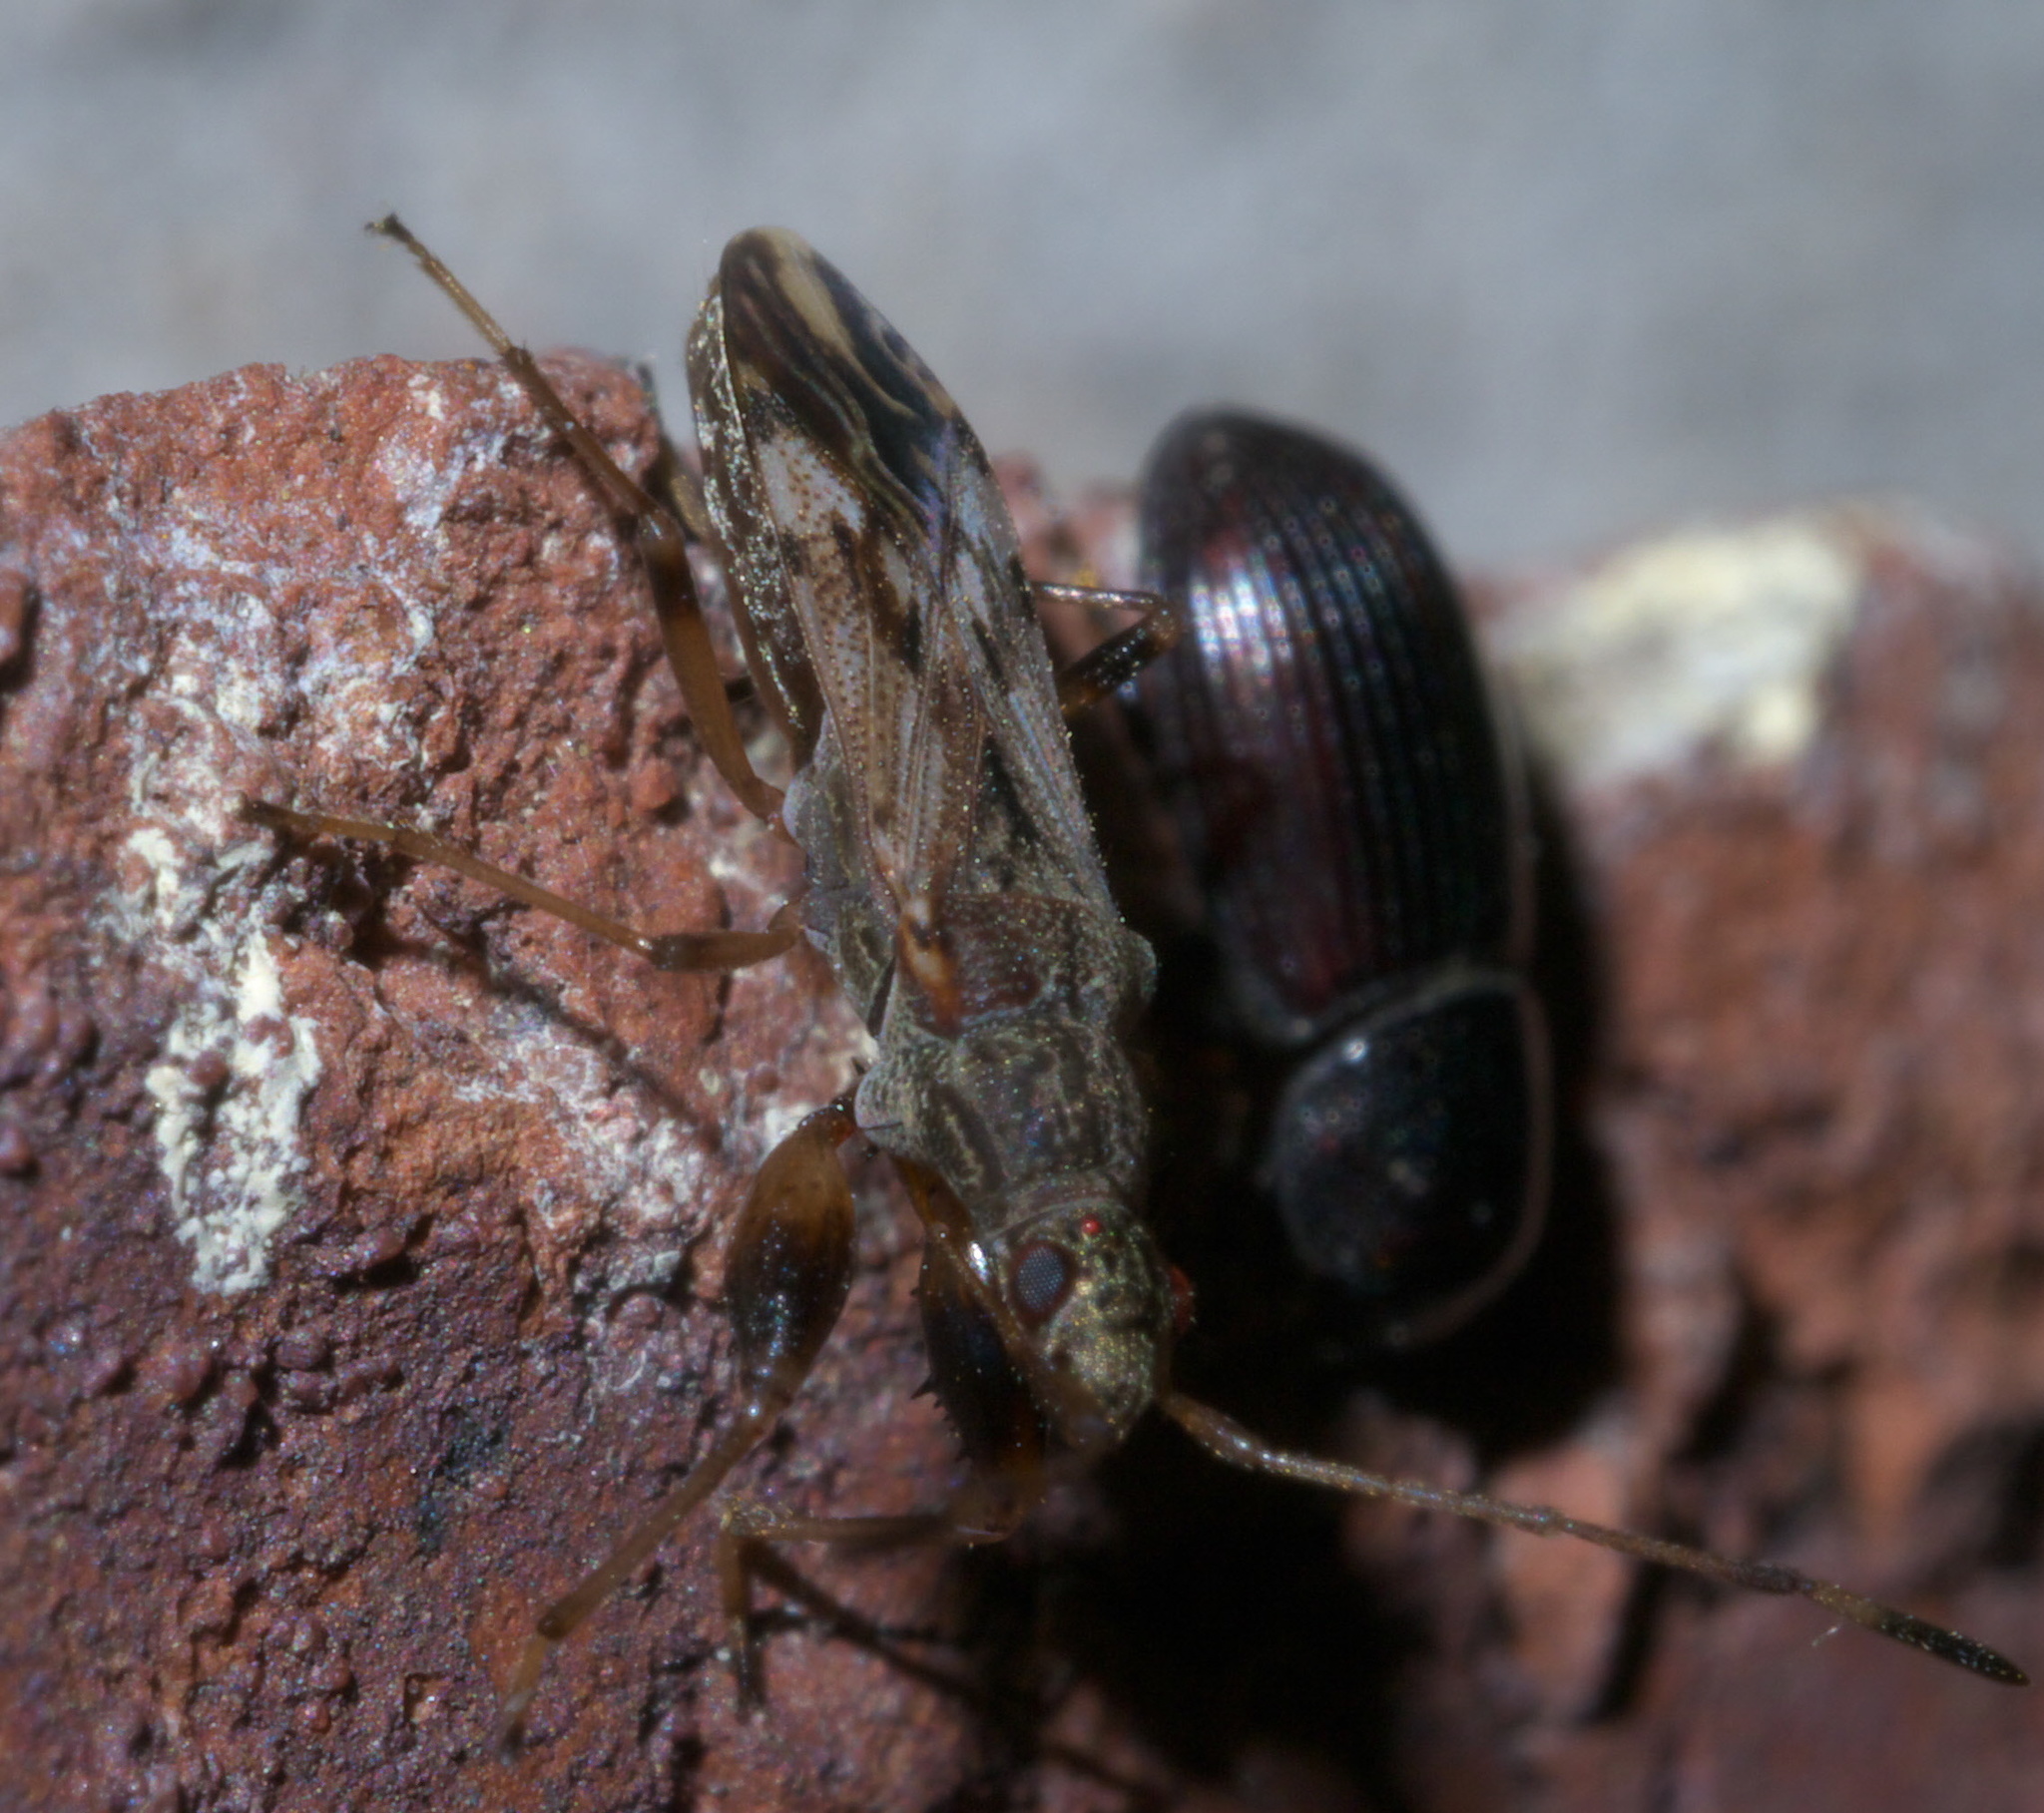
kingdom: Animalia
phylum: Arthropoda
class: Insecta
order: Hemiptera
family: Rhyparochromidae
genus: Neopamera
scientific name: Neopamera albocincta
